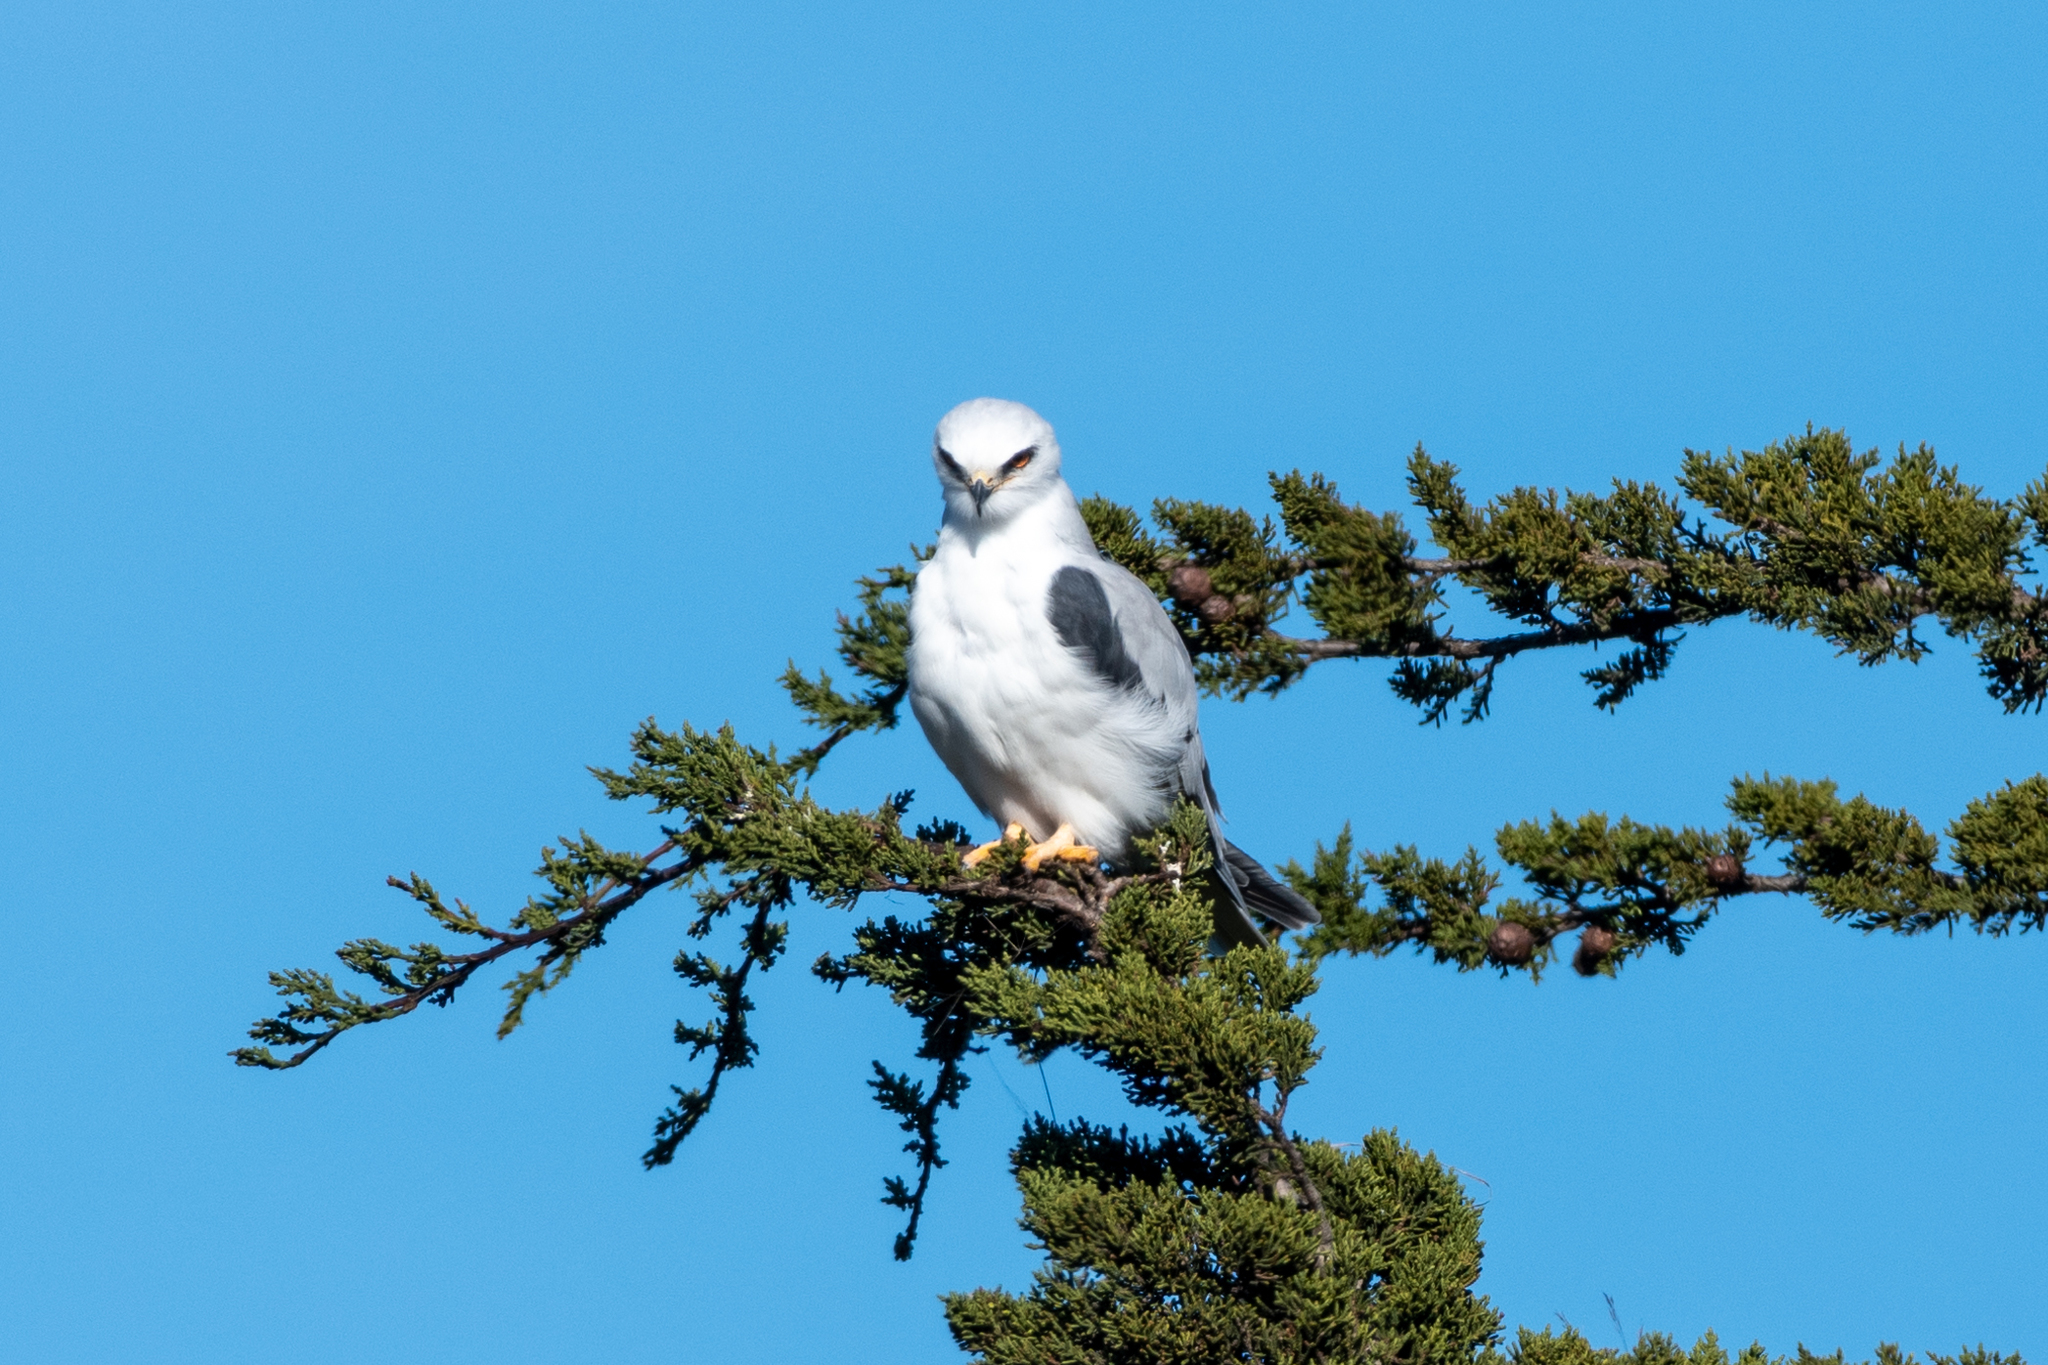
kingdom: Animalia
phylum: Chordata
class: Aves
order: Accipitriformes
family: Accipitridae
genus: Elanus
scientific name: Elanus leucurus
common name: White-tailed kite
